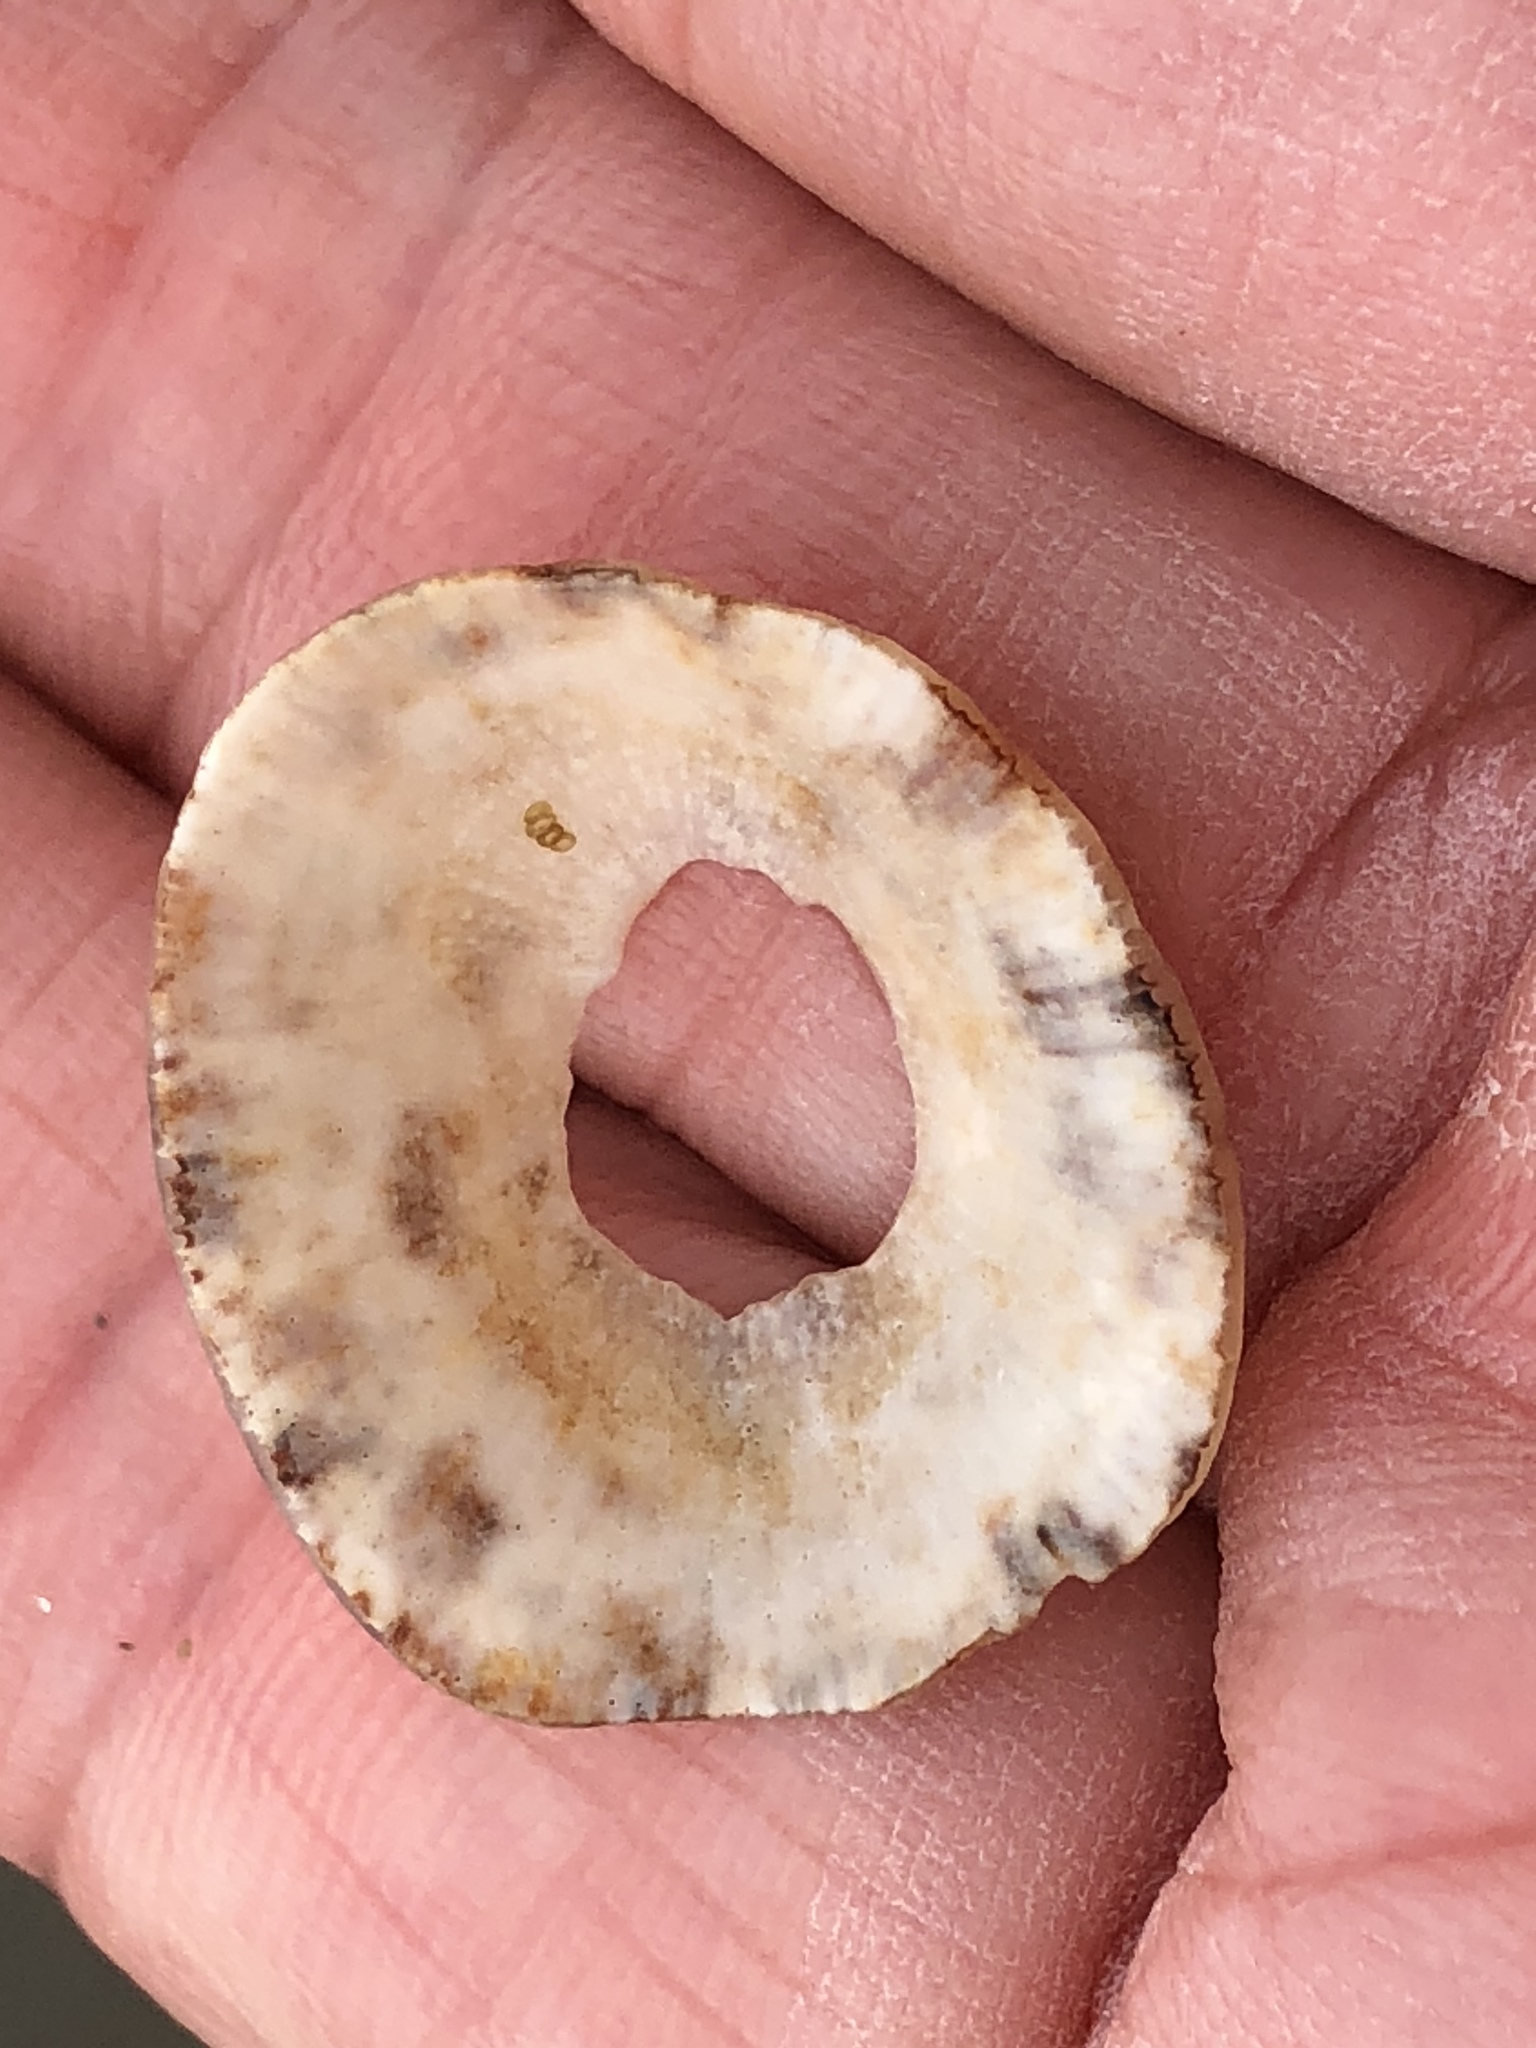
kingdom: Animalia
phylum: Mollusca
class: Gastropoda
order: Lepetellida
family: Fissurellidae
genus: Diodora
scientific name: Diodora aspera
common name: Rough keyhole limpet
